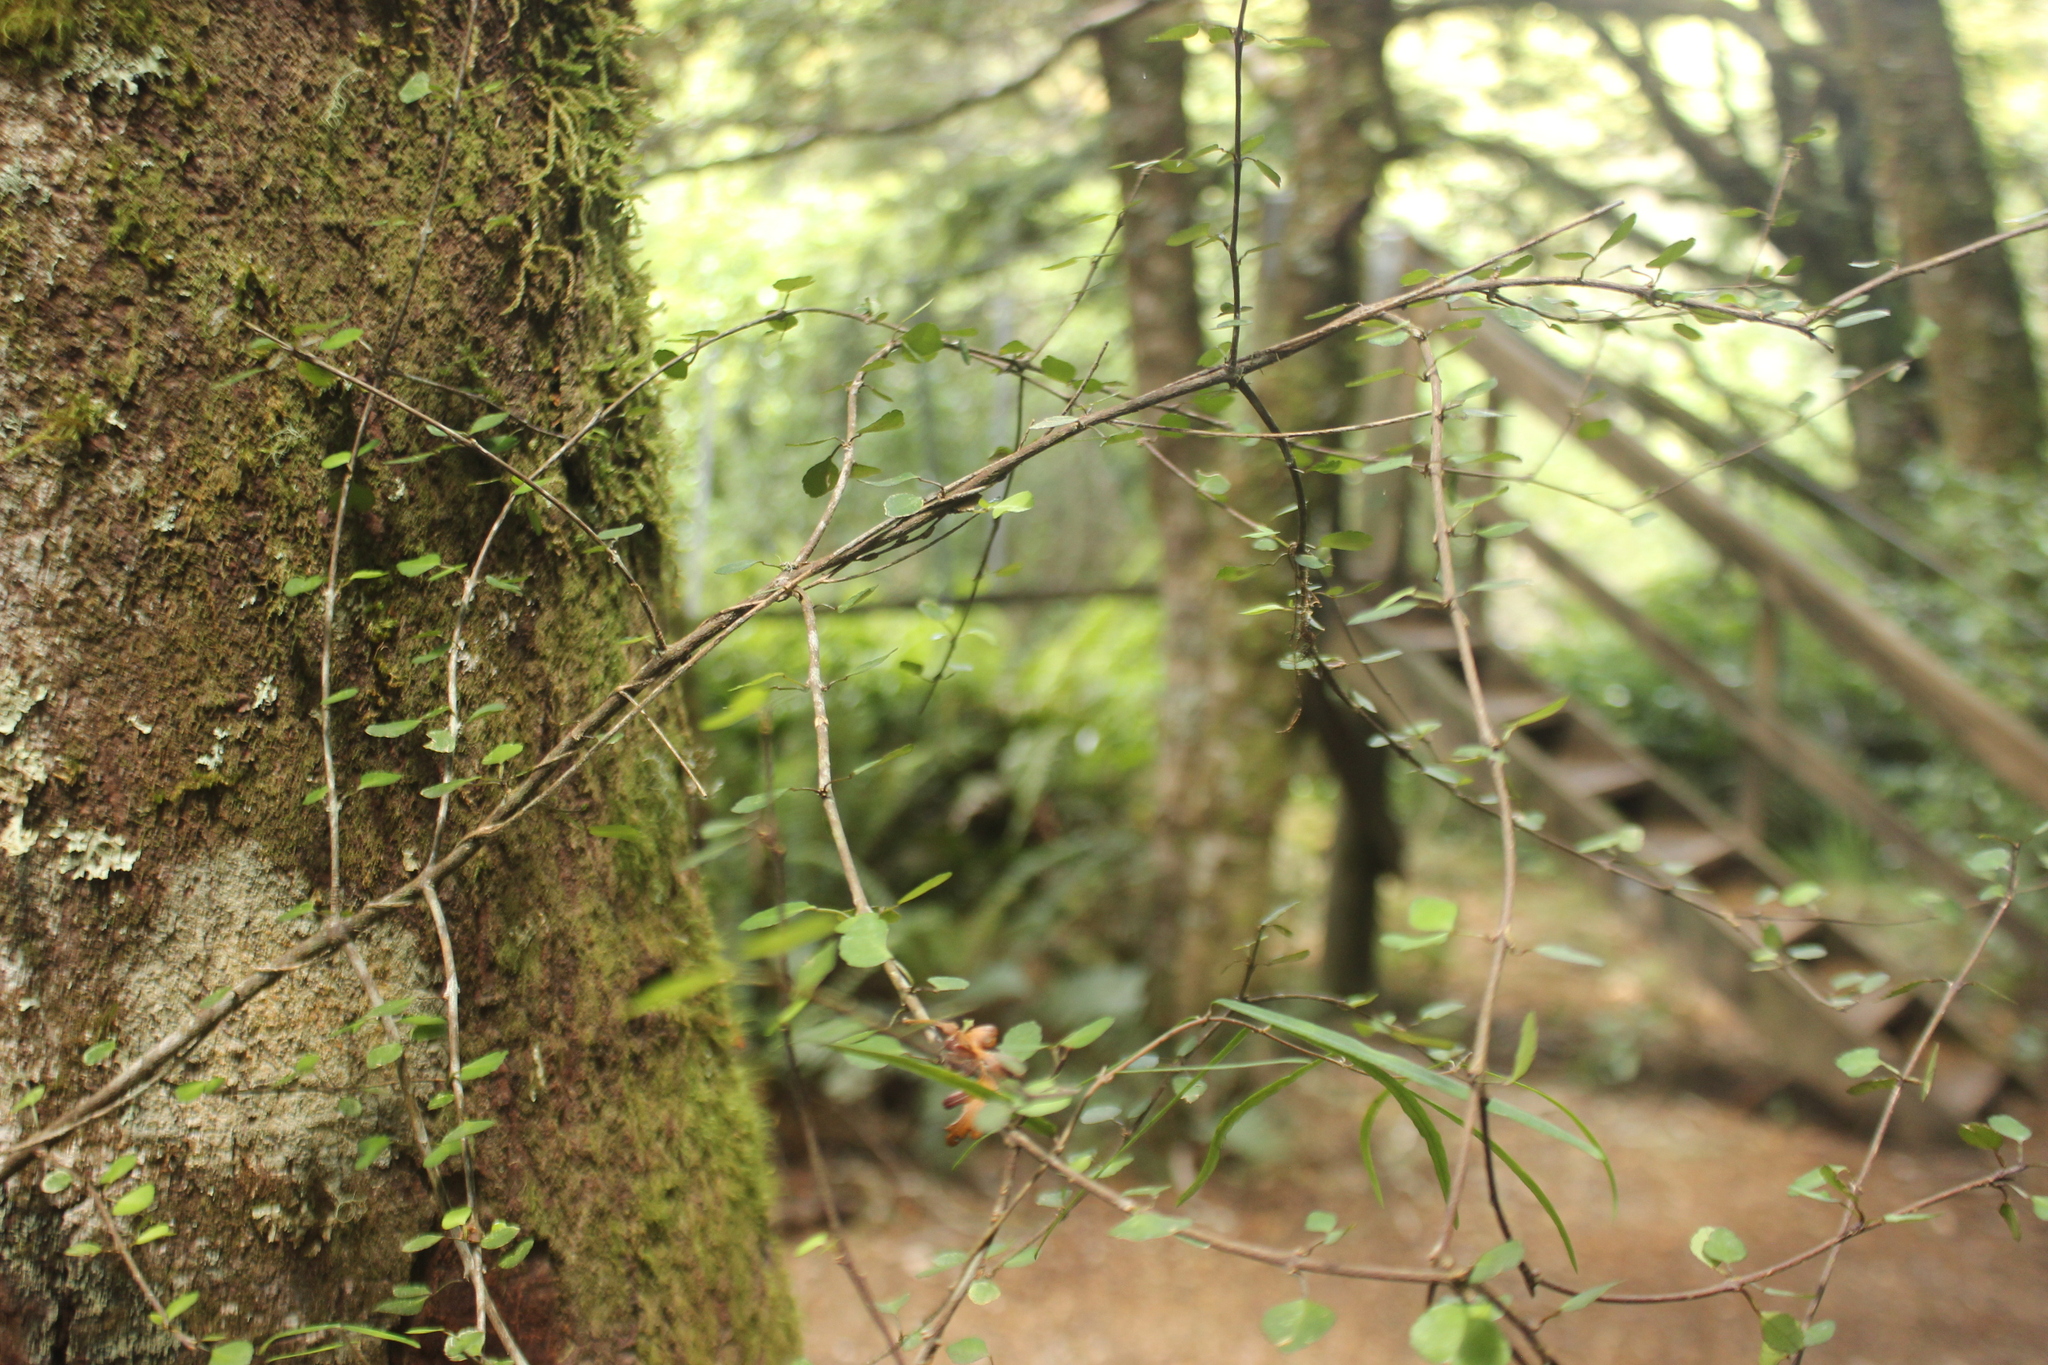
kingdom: Plantae
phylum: Tracheophyta
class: Magnoliopsida
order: Sapindales
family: Rutaceae
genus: Melicope
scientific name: Melicope simplex
